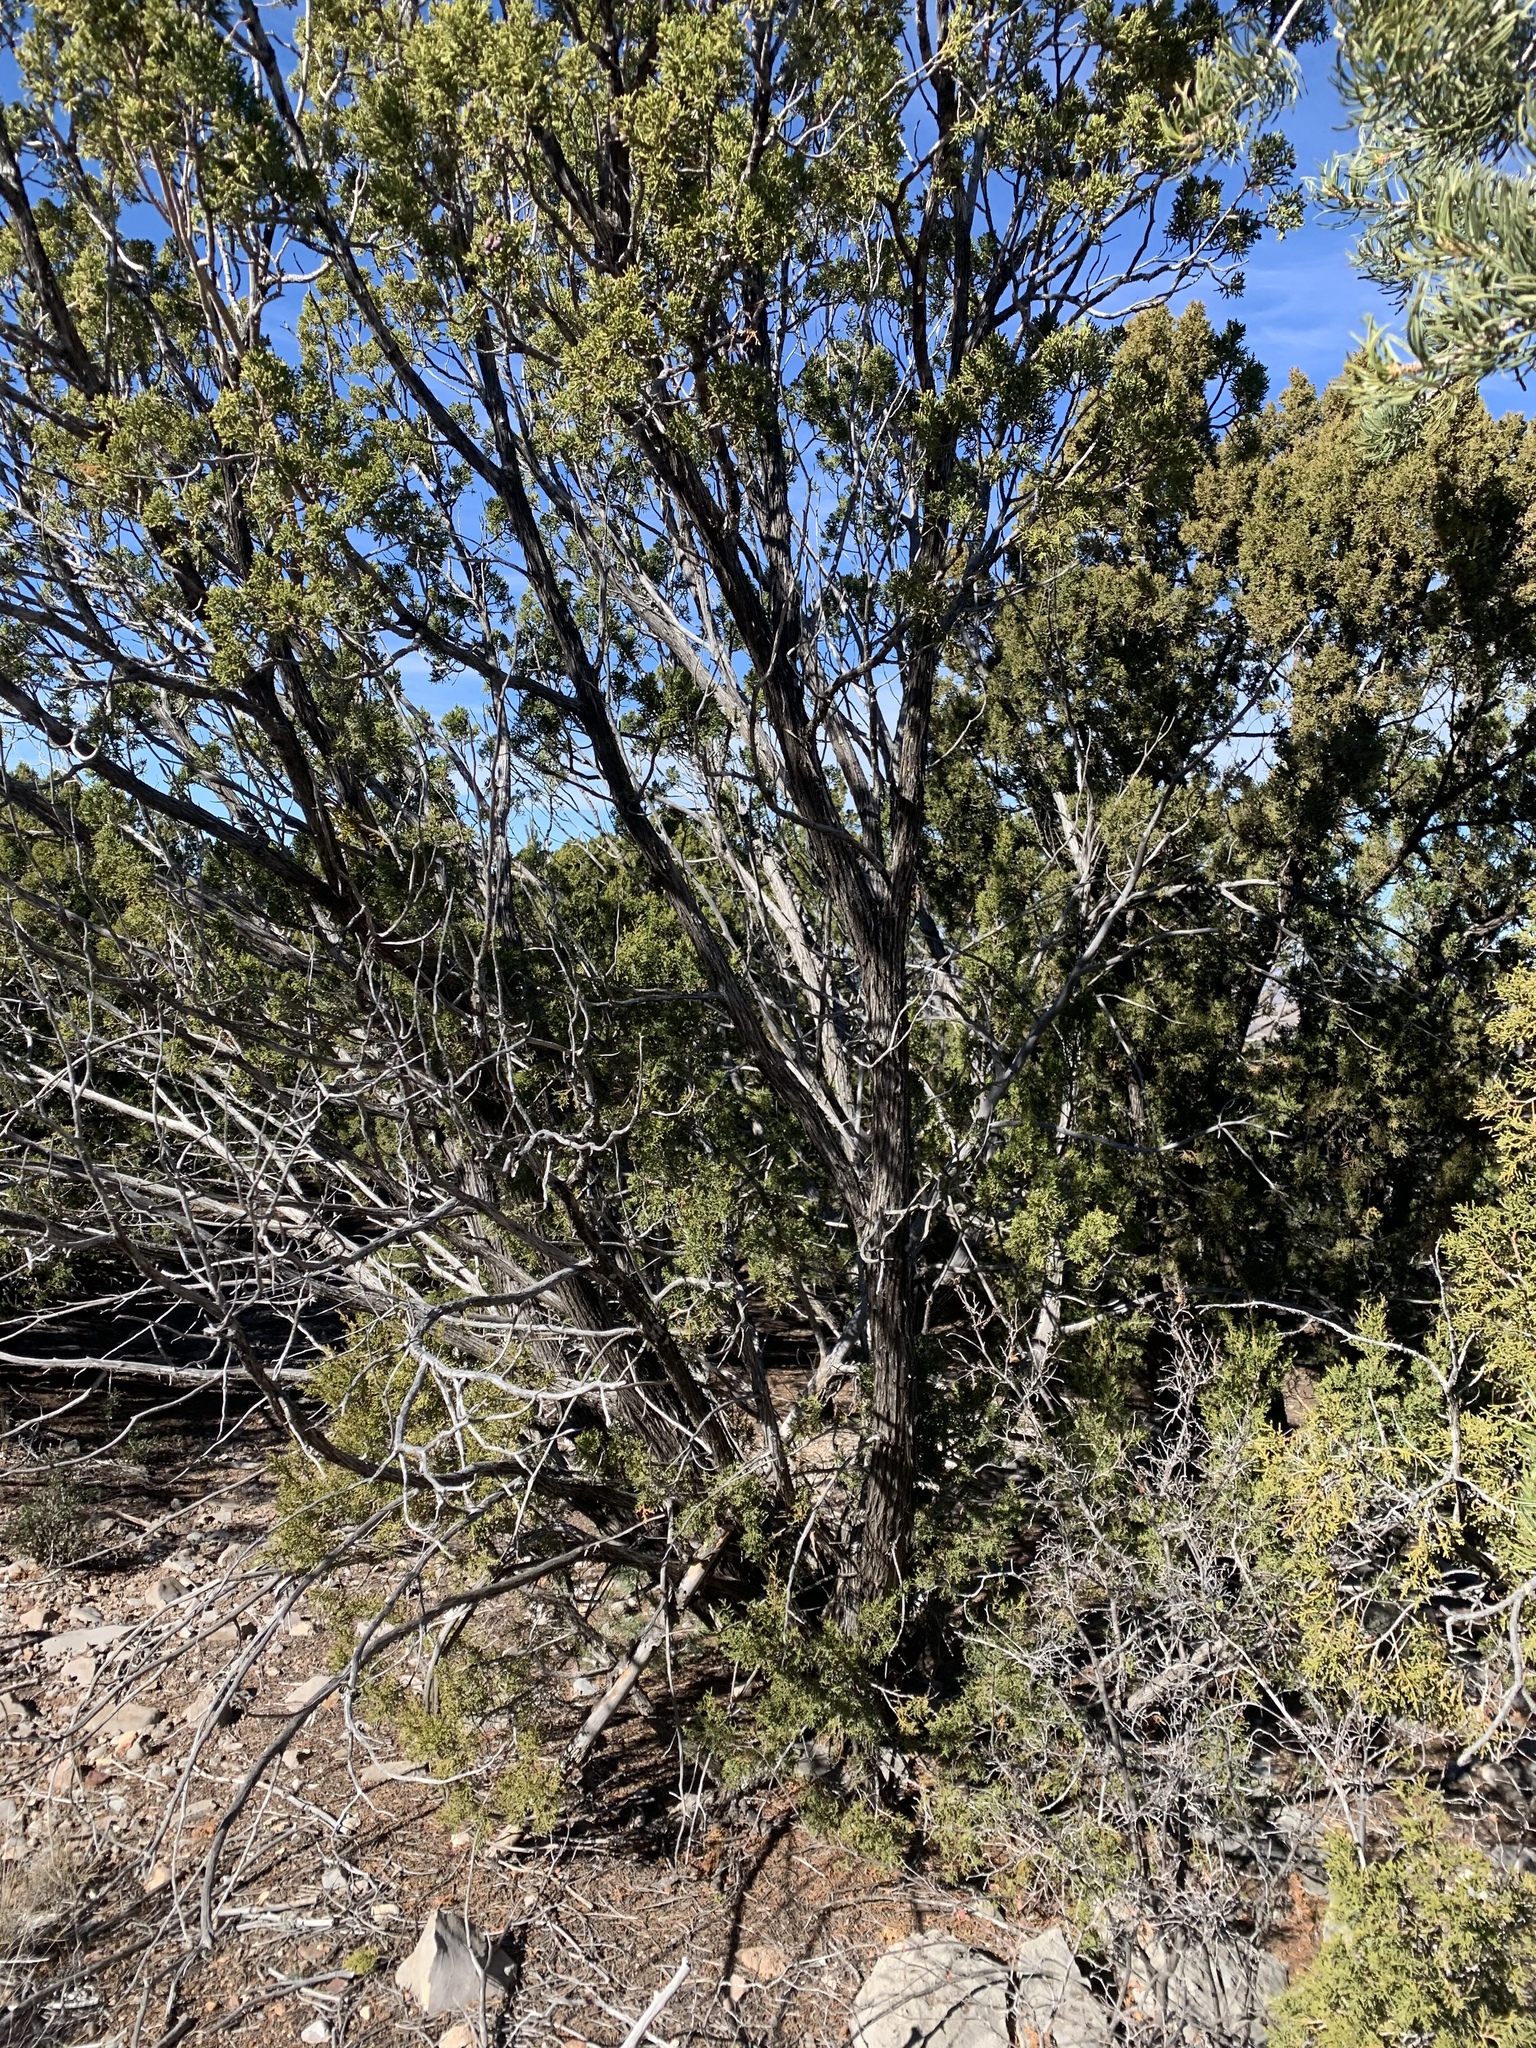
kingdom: Plantae
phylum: Tracheophyta
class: Pinopsida
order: Pinales
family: Cupressaceae
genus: Juniperus
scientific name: Juniperus monosperma
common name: One-seed juniper
